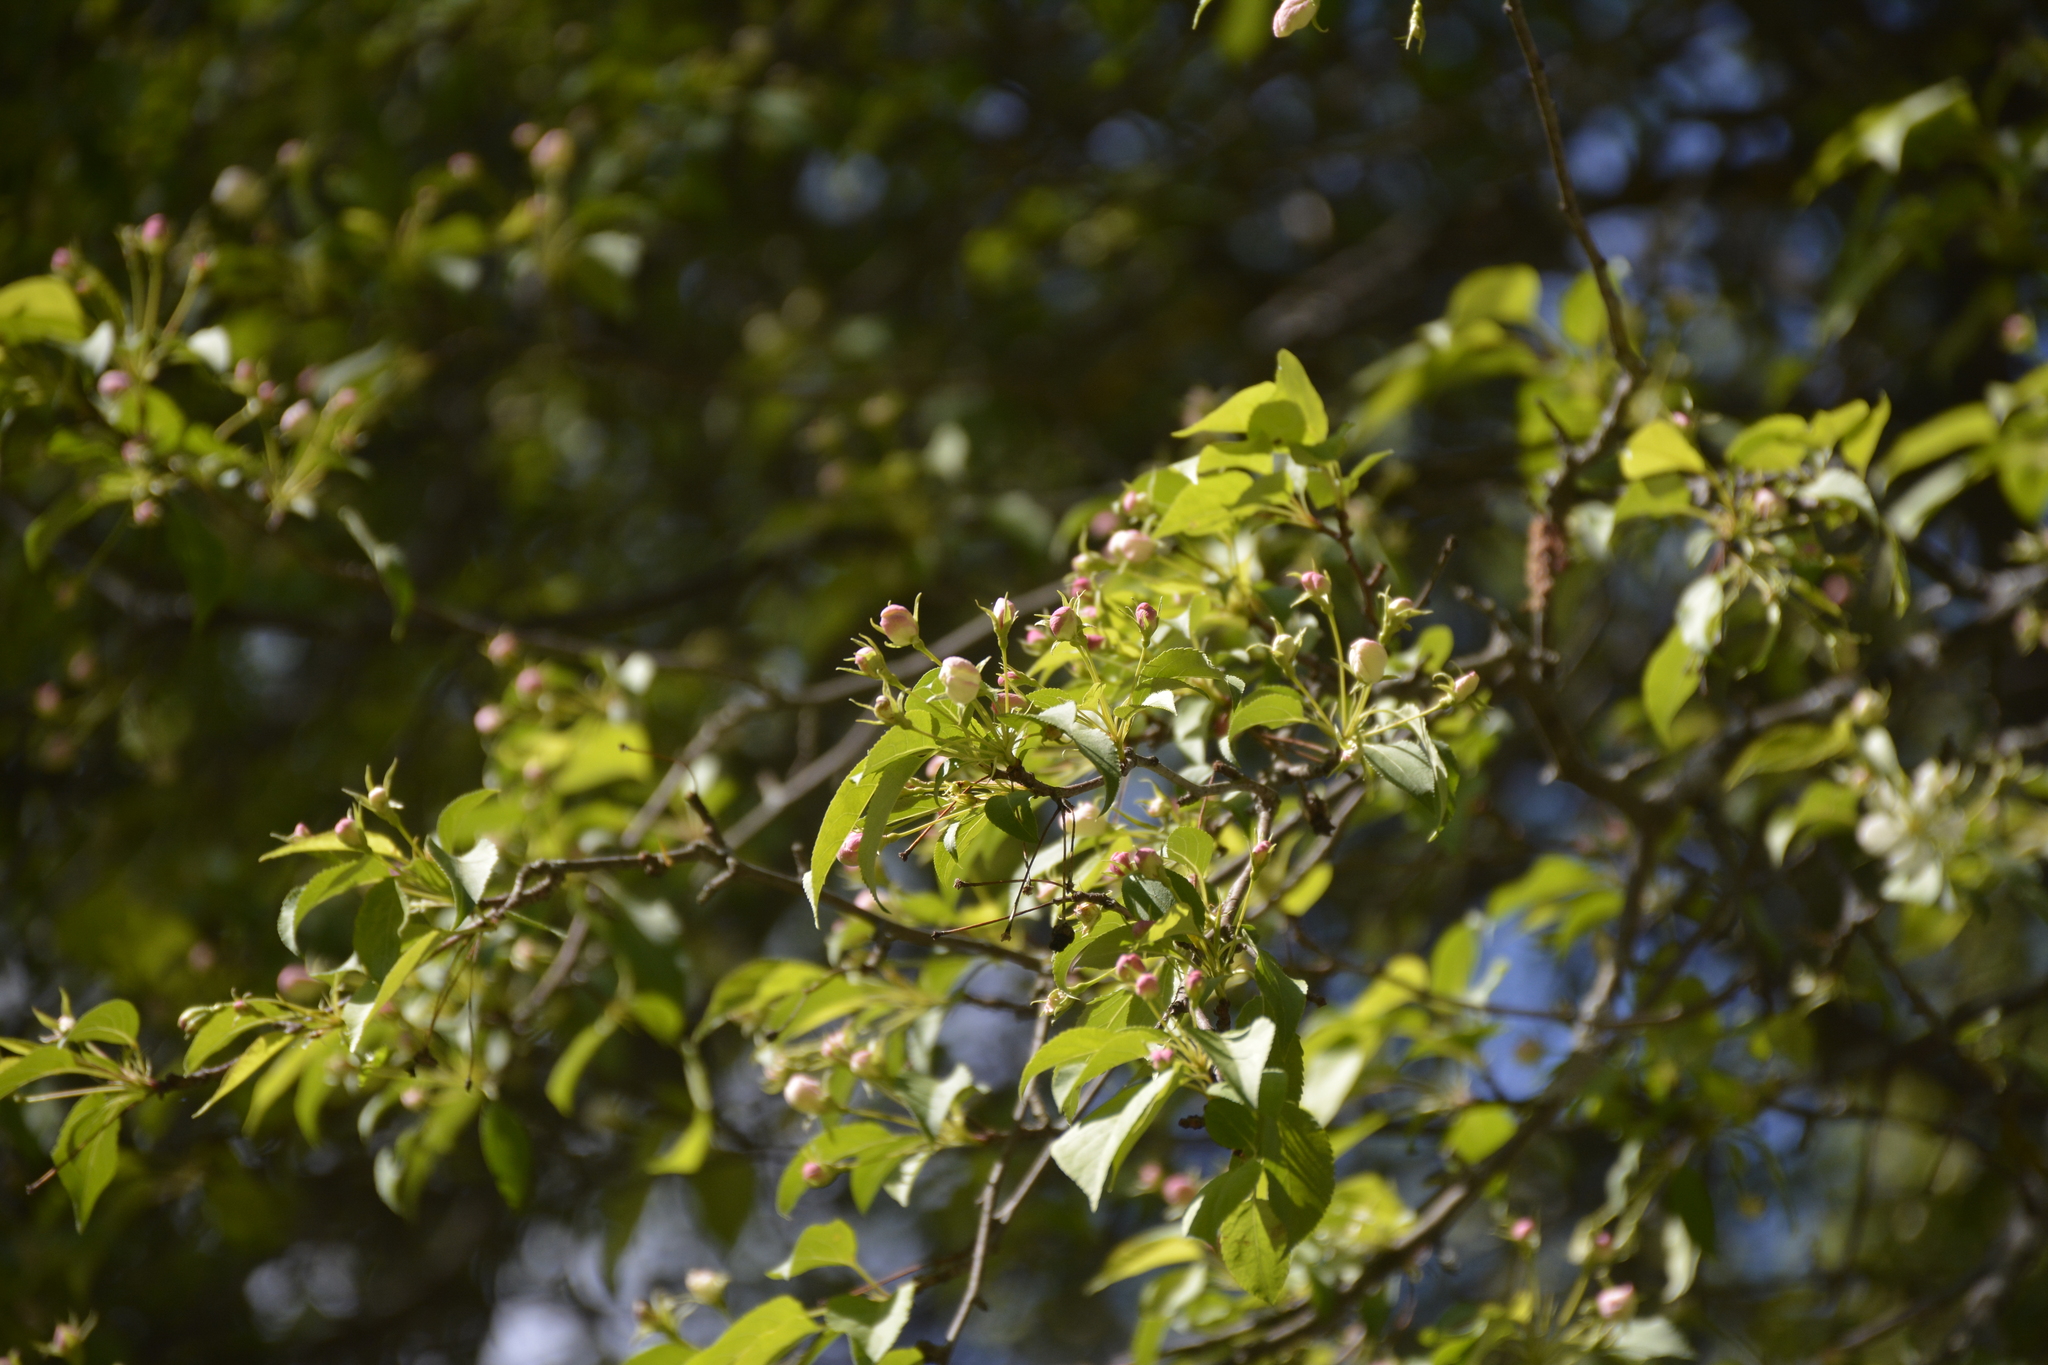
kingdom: Plantae
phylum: Tracheophyta
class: Magnoliopsida
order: Rosales
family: Rosaceae
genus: Malus
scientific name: Malus baccata
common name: Siberian crab
